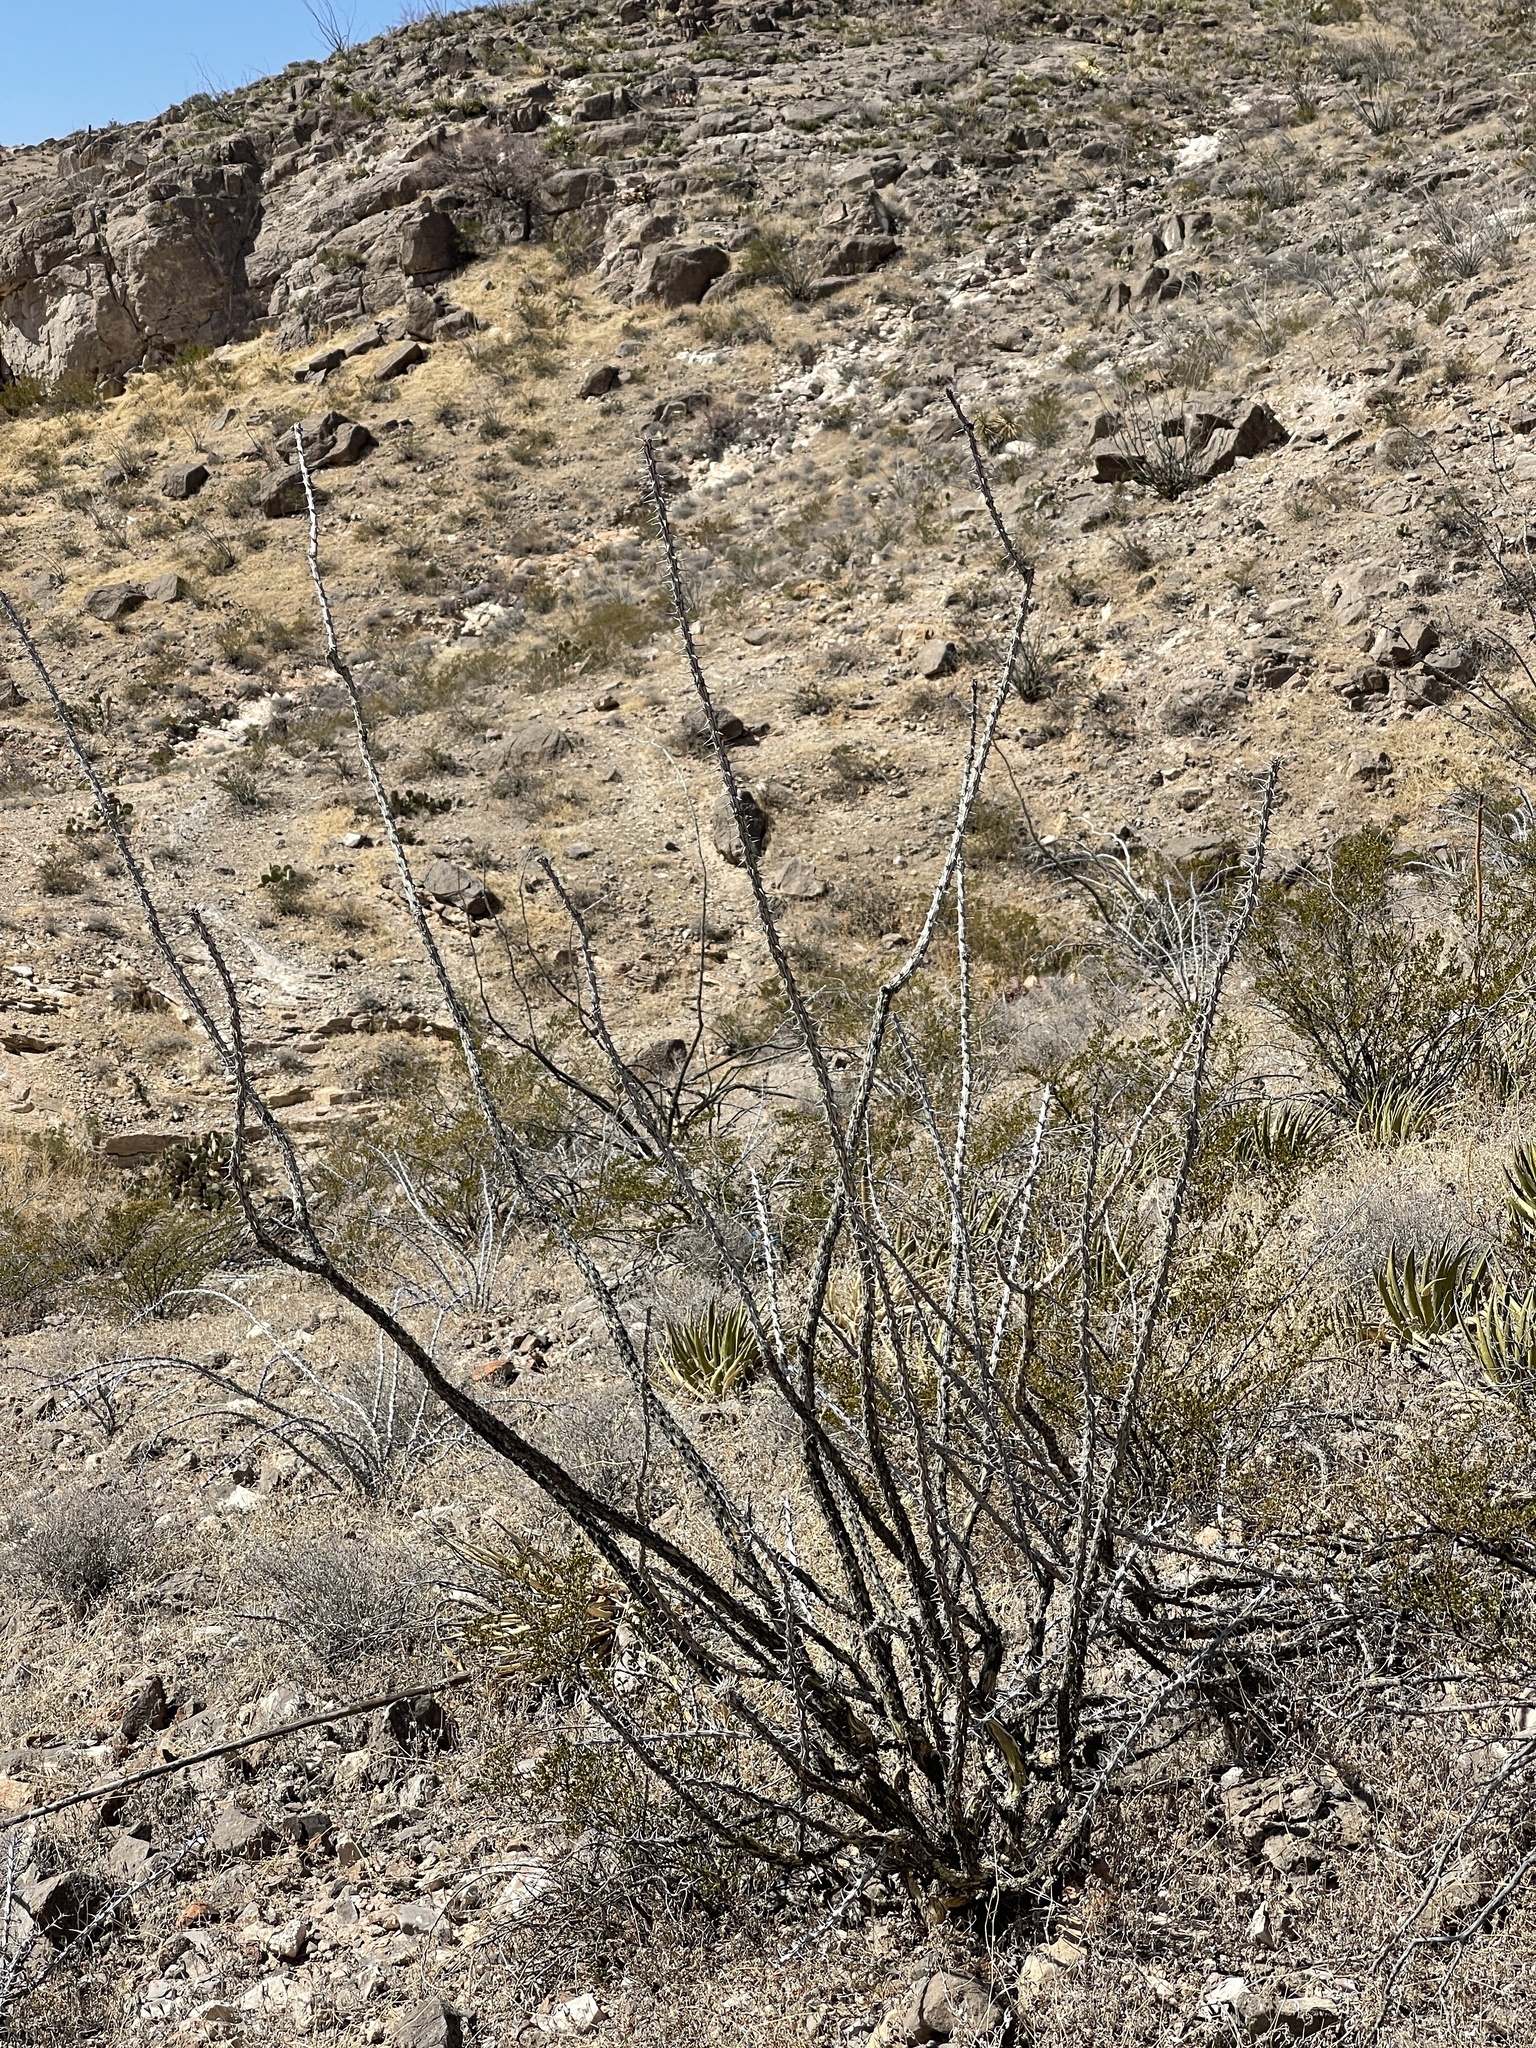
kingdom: Plantae
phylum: Tracheophyta
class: Magnoliopsida
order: Ericales
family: Fouquieriaceae
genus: Fouquieria
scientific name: Fouquieria splendens
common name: Vine-cactus
